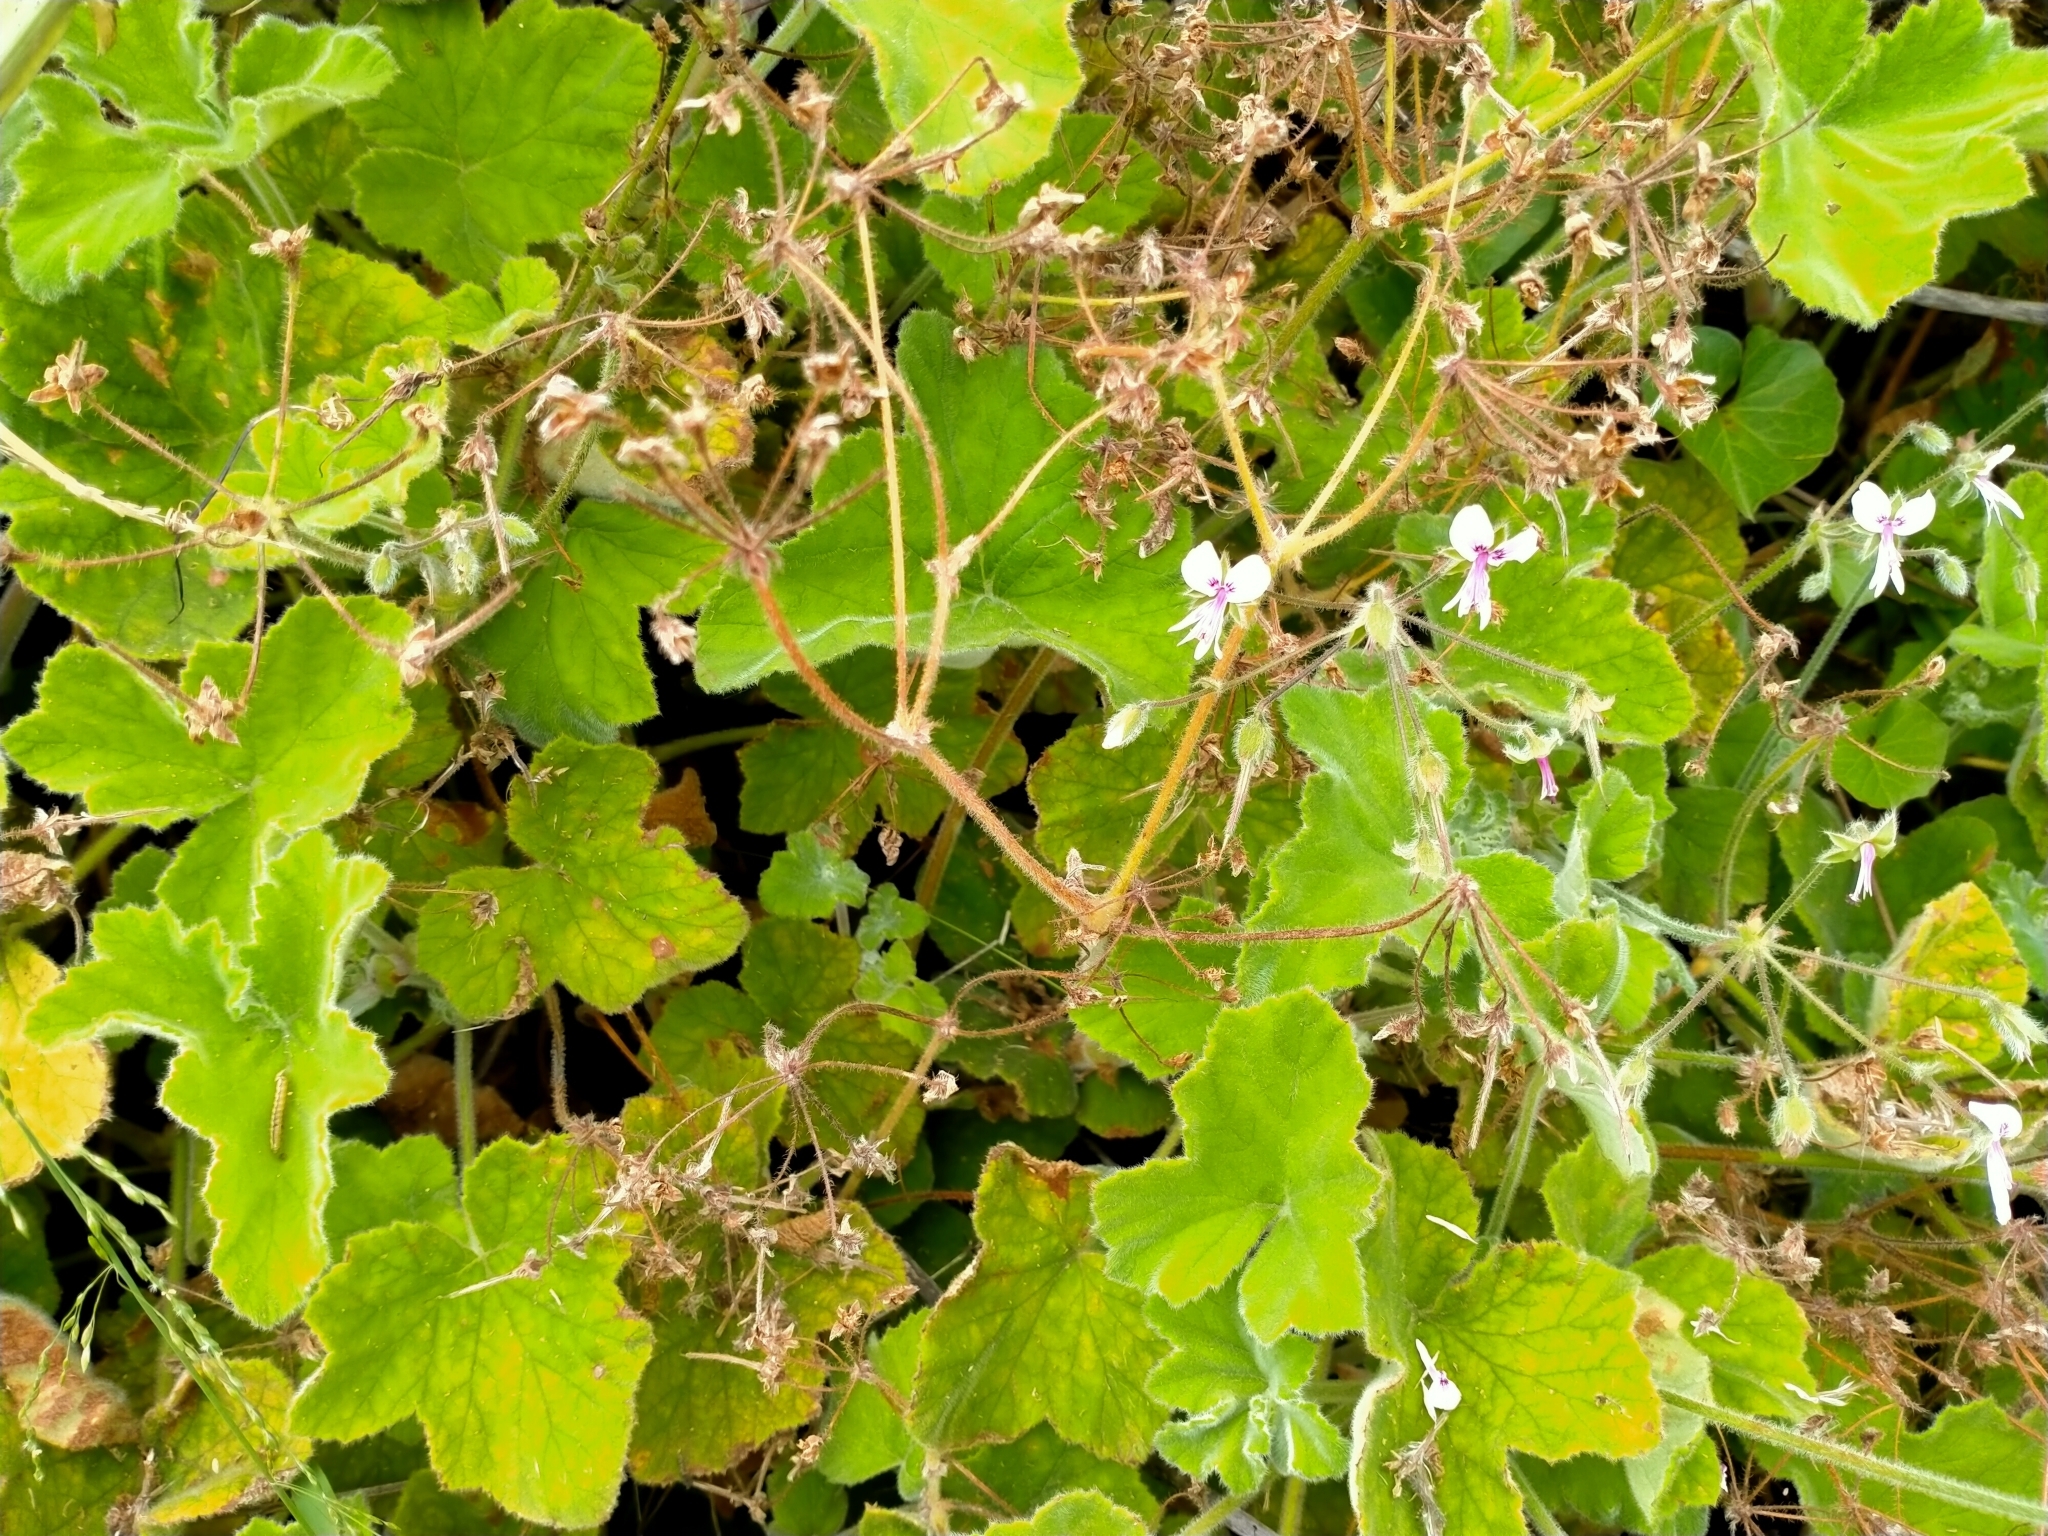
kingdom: Plantae
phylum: Tracheophyta
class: Magnoliopsida
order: Geraniales
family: Geraniaceae
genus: Pelargonium
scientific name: Pelargonium tomentosum
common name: Peppermint-scented geranium
